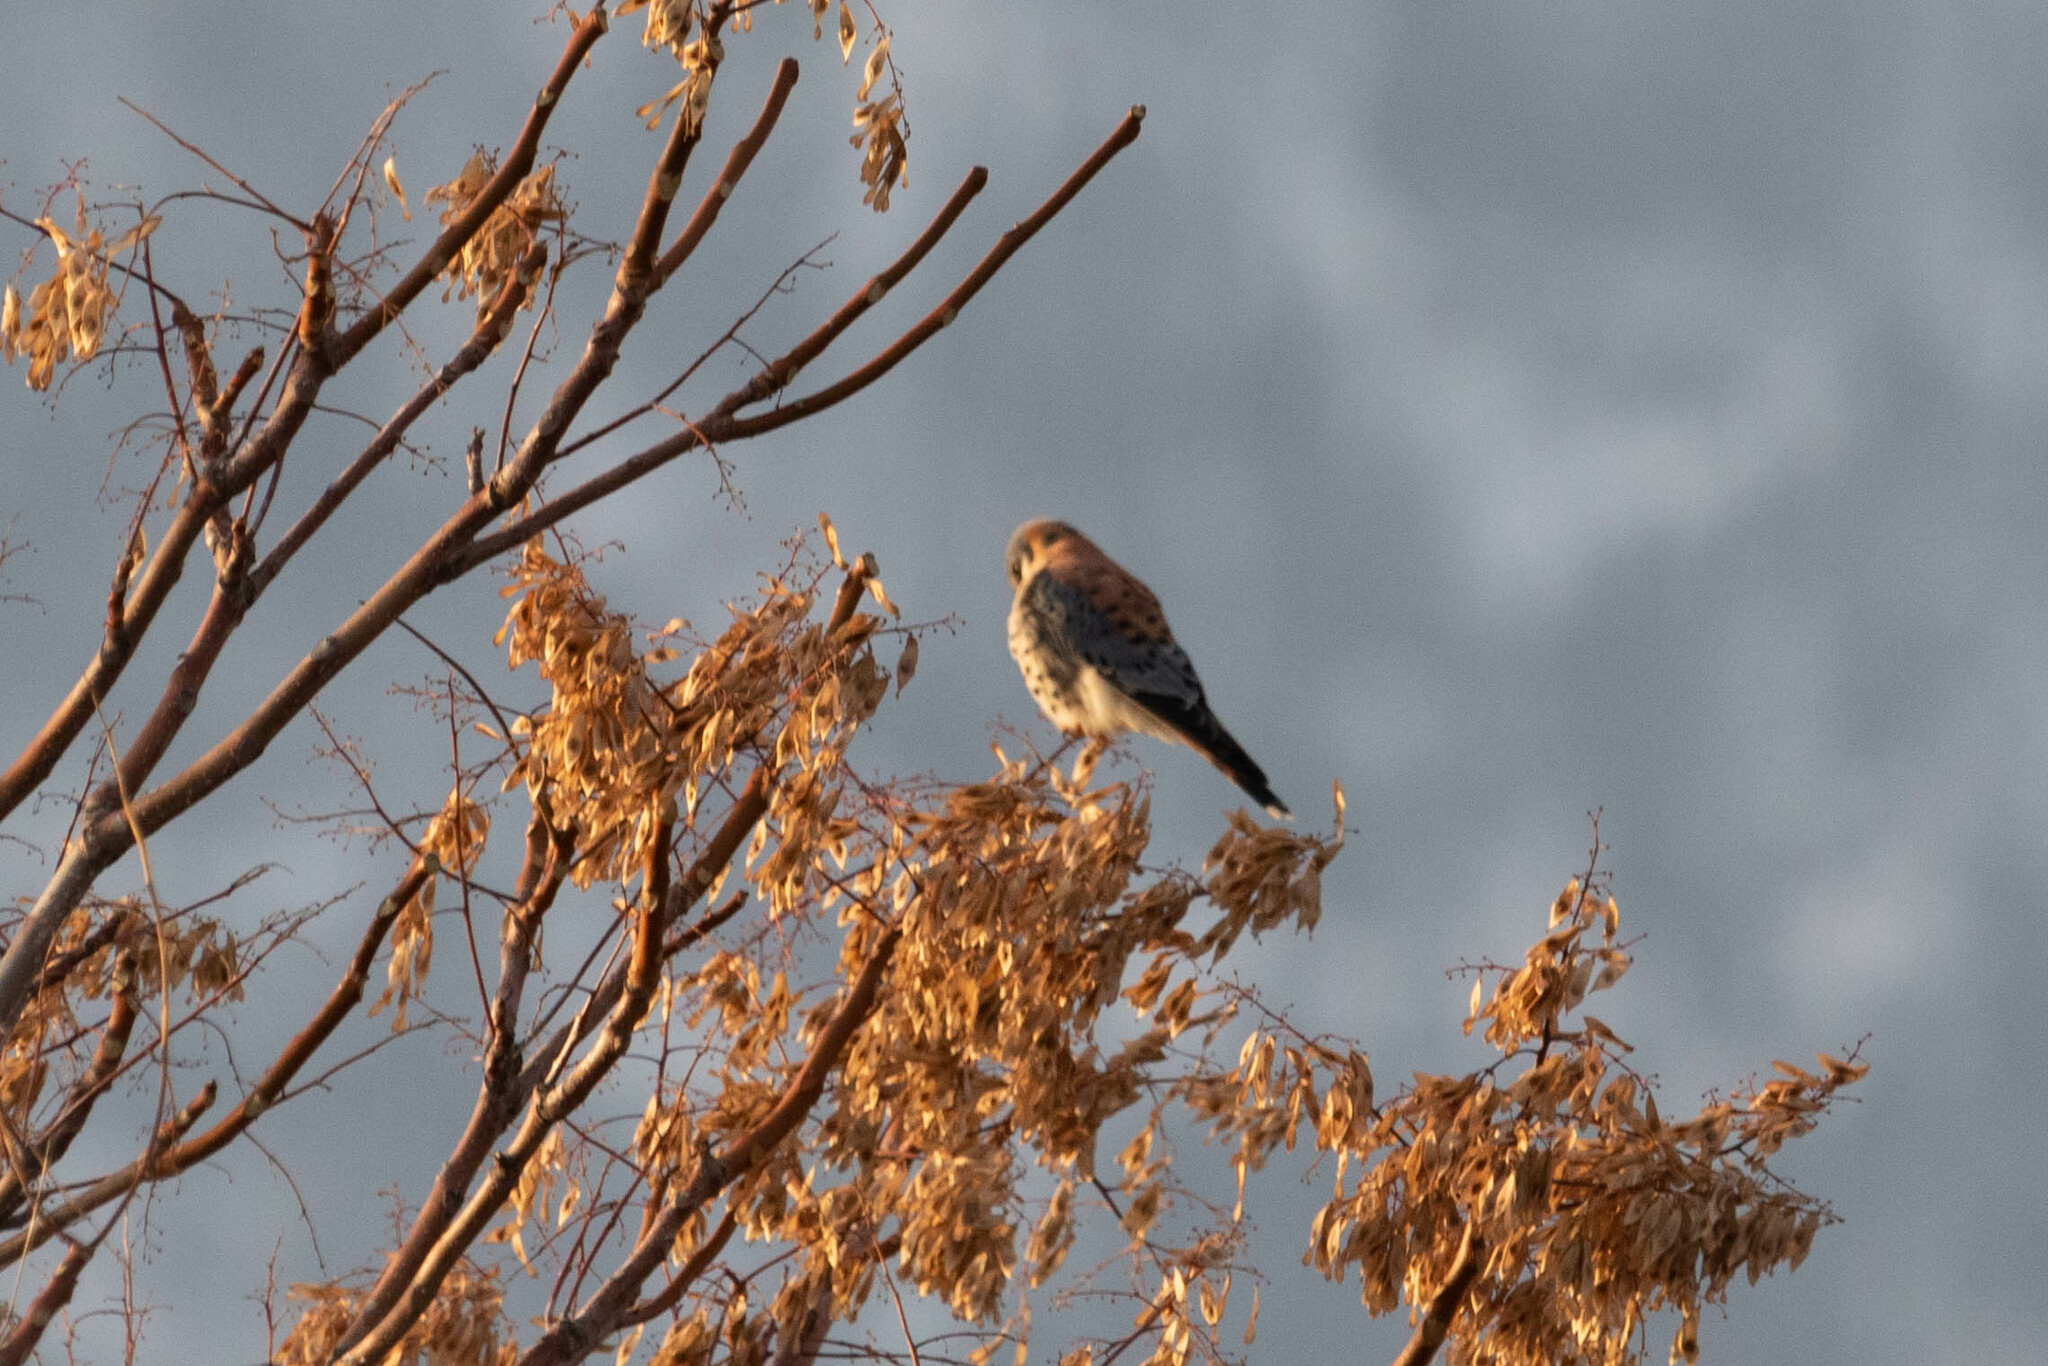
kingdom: Animalia
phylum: Chordata
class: Aves
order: Falconiformes
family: Falconidae
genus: Falco
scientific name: Falco sparverius
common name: American kestrel
